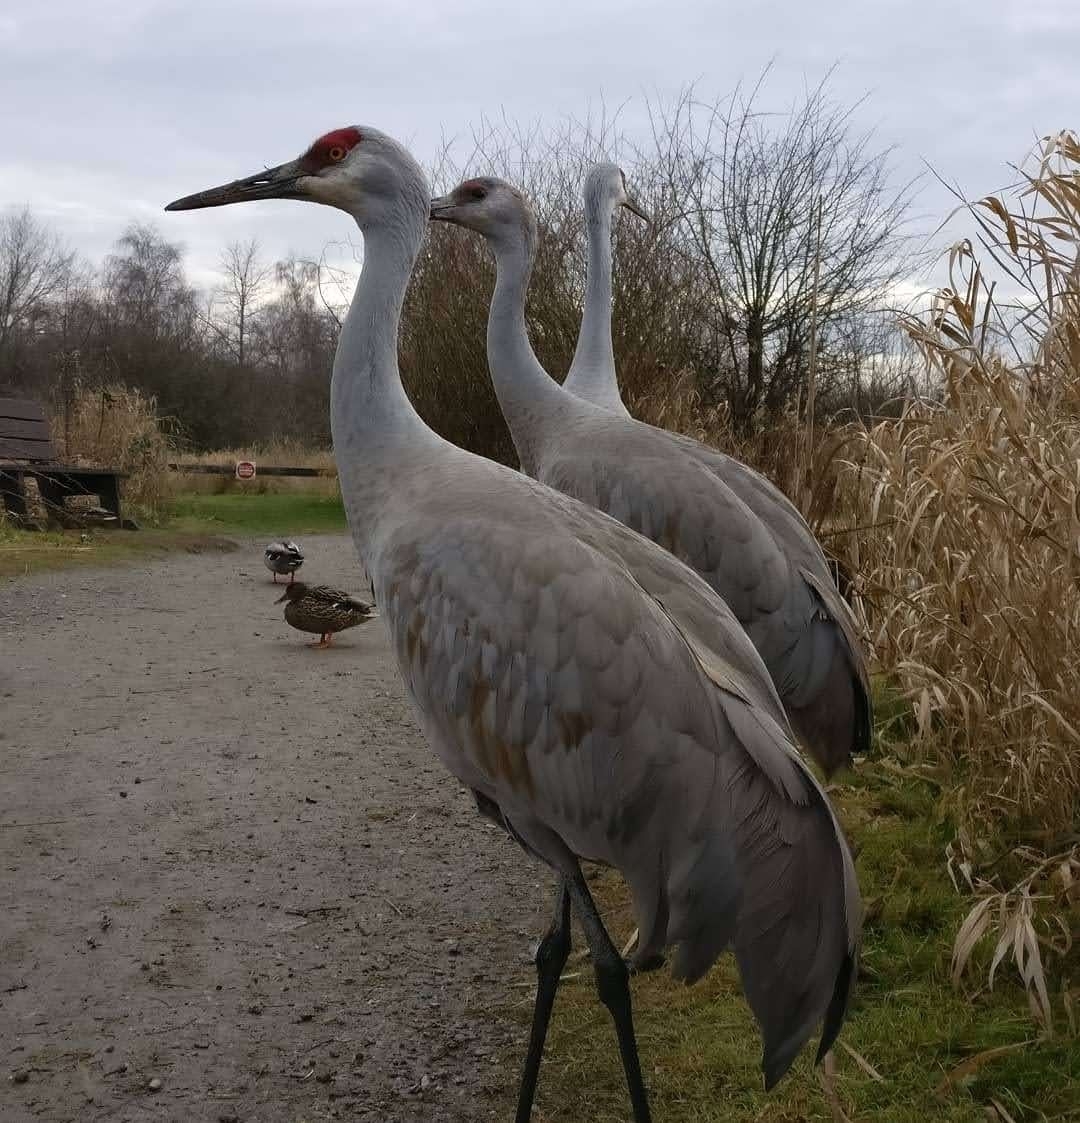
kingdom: Animalia
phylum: Chordata
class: Aves
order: Gruiformes
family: Gruidae
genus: Grus
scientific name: Grus canadensis
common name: Sandhill crane
